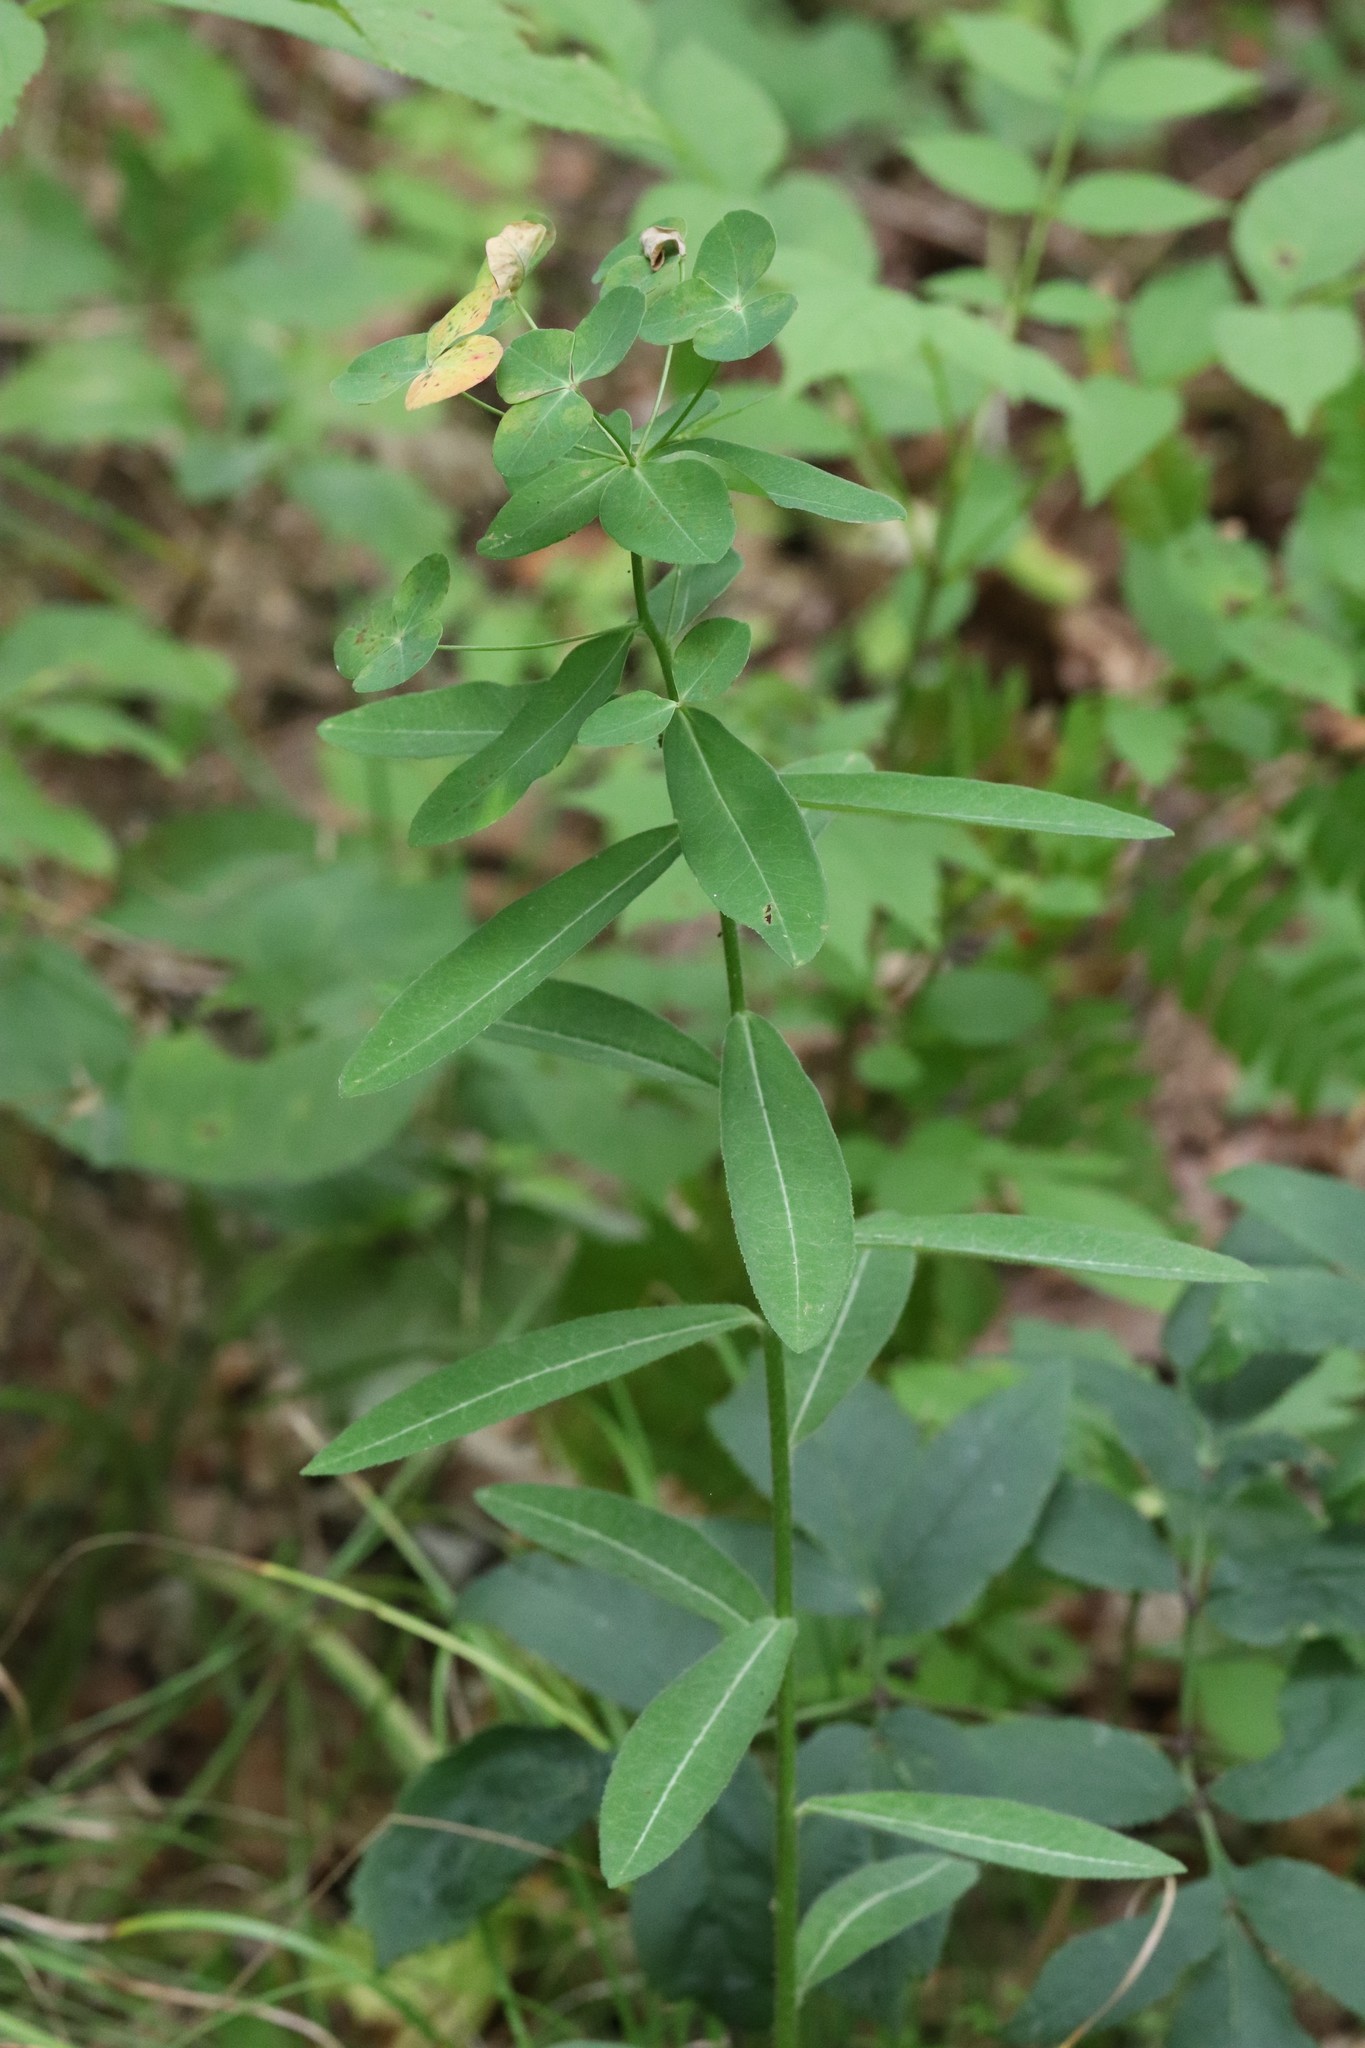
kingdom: Plantae
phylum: Tracheophyta
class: Magnoliopsida
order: Malpighiales
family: Euphorbiaceae
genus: Euphorbia
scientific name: Euphorbia lucorum
